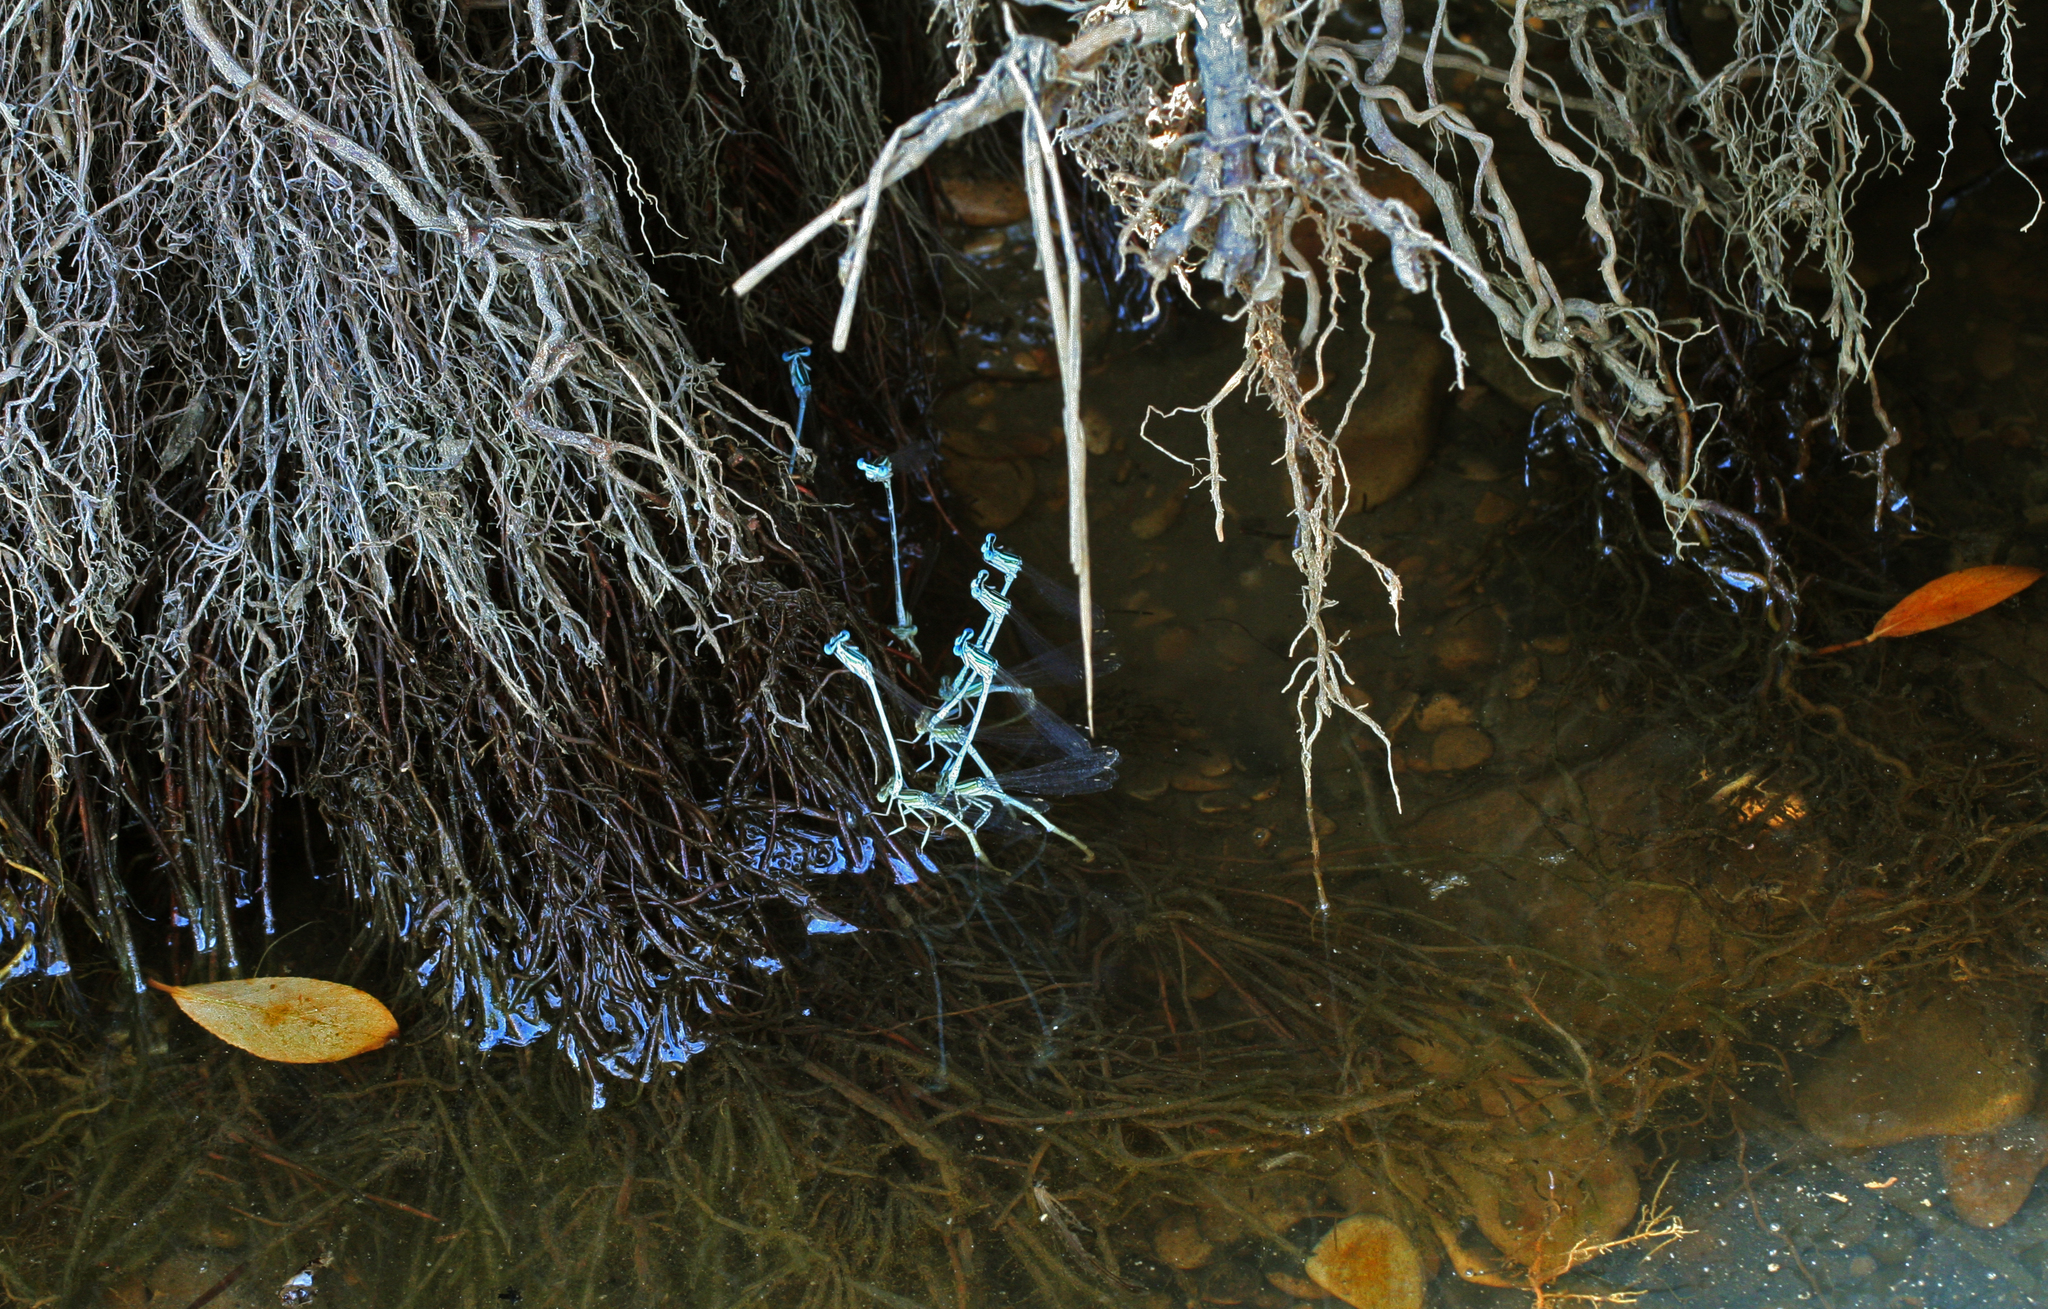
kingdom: Animalia
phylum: Arthropoda
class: Insecta
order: Odonata
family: Platycnemididae
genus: Platycnemis
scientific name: Platycnemis dealbata
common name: Ivory featherleg
